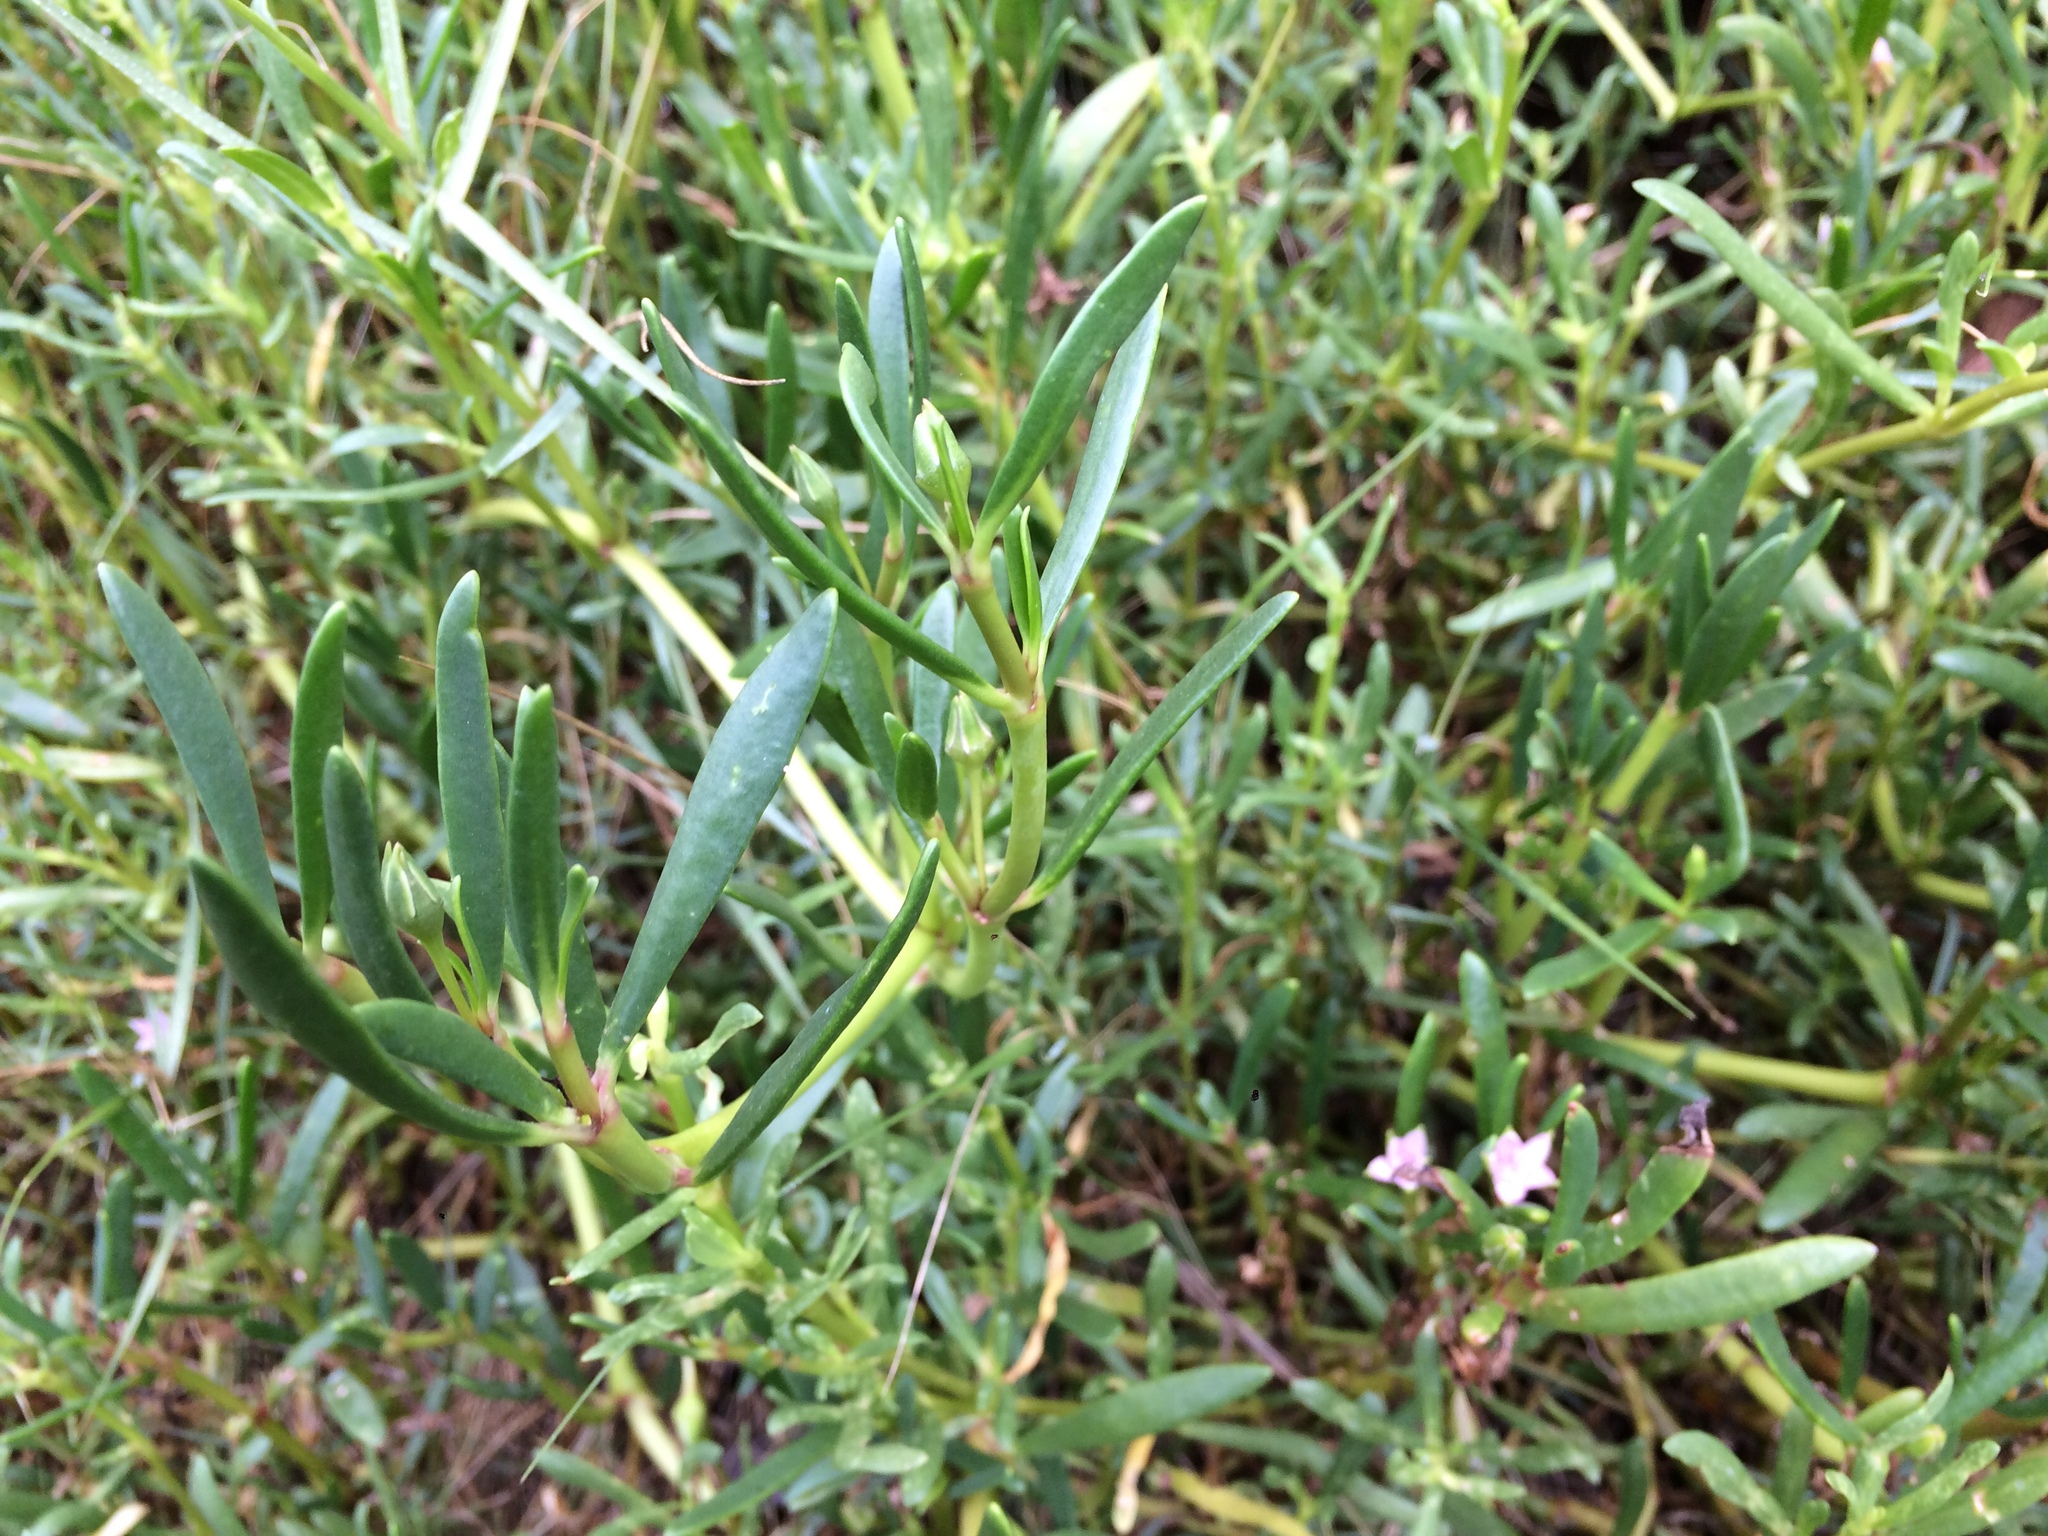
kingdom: Plantae
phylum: Tracheophyta
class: Magnoliopsida
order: Caryophyllales
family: Aizoaceae
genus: Sesuvium
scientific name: Sesuvium portulacastrum
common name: Sea-purslane
